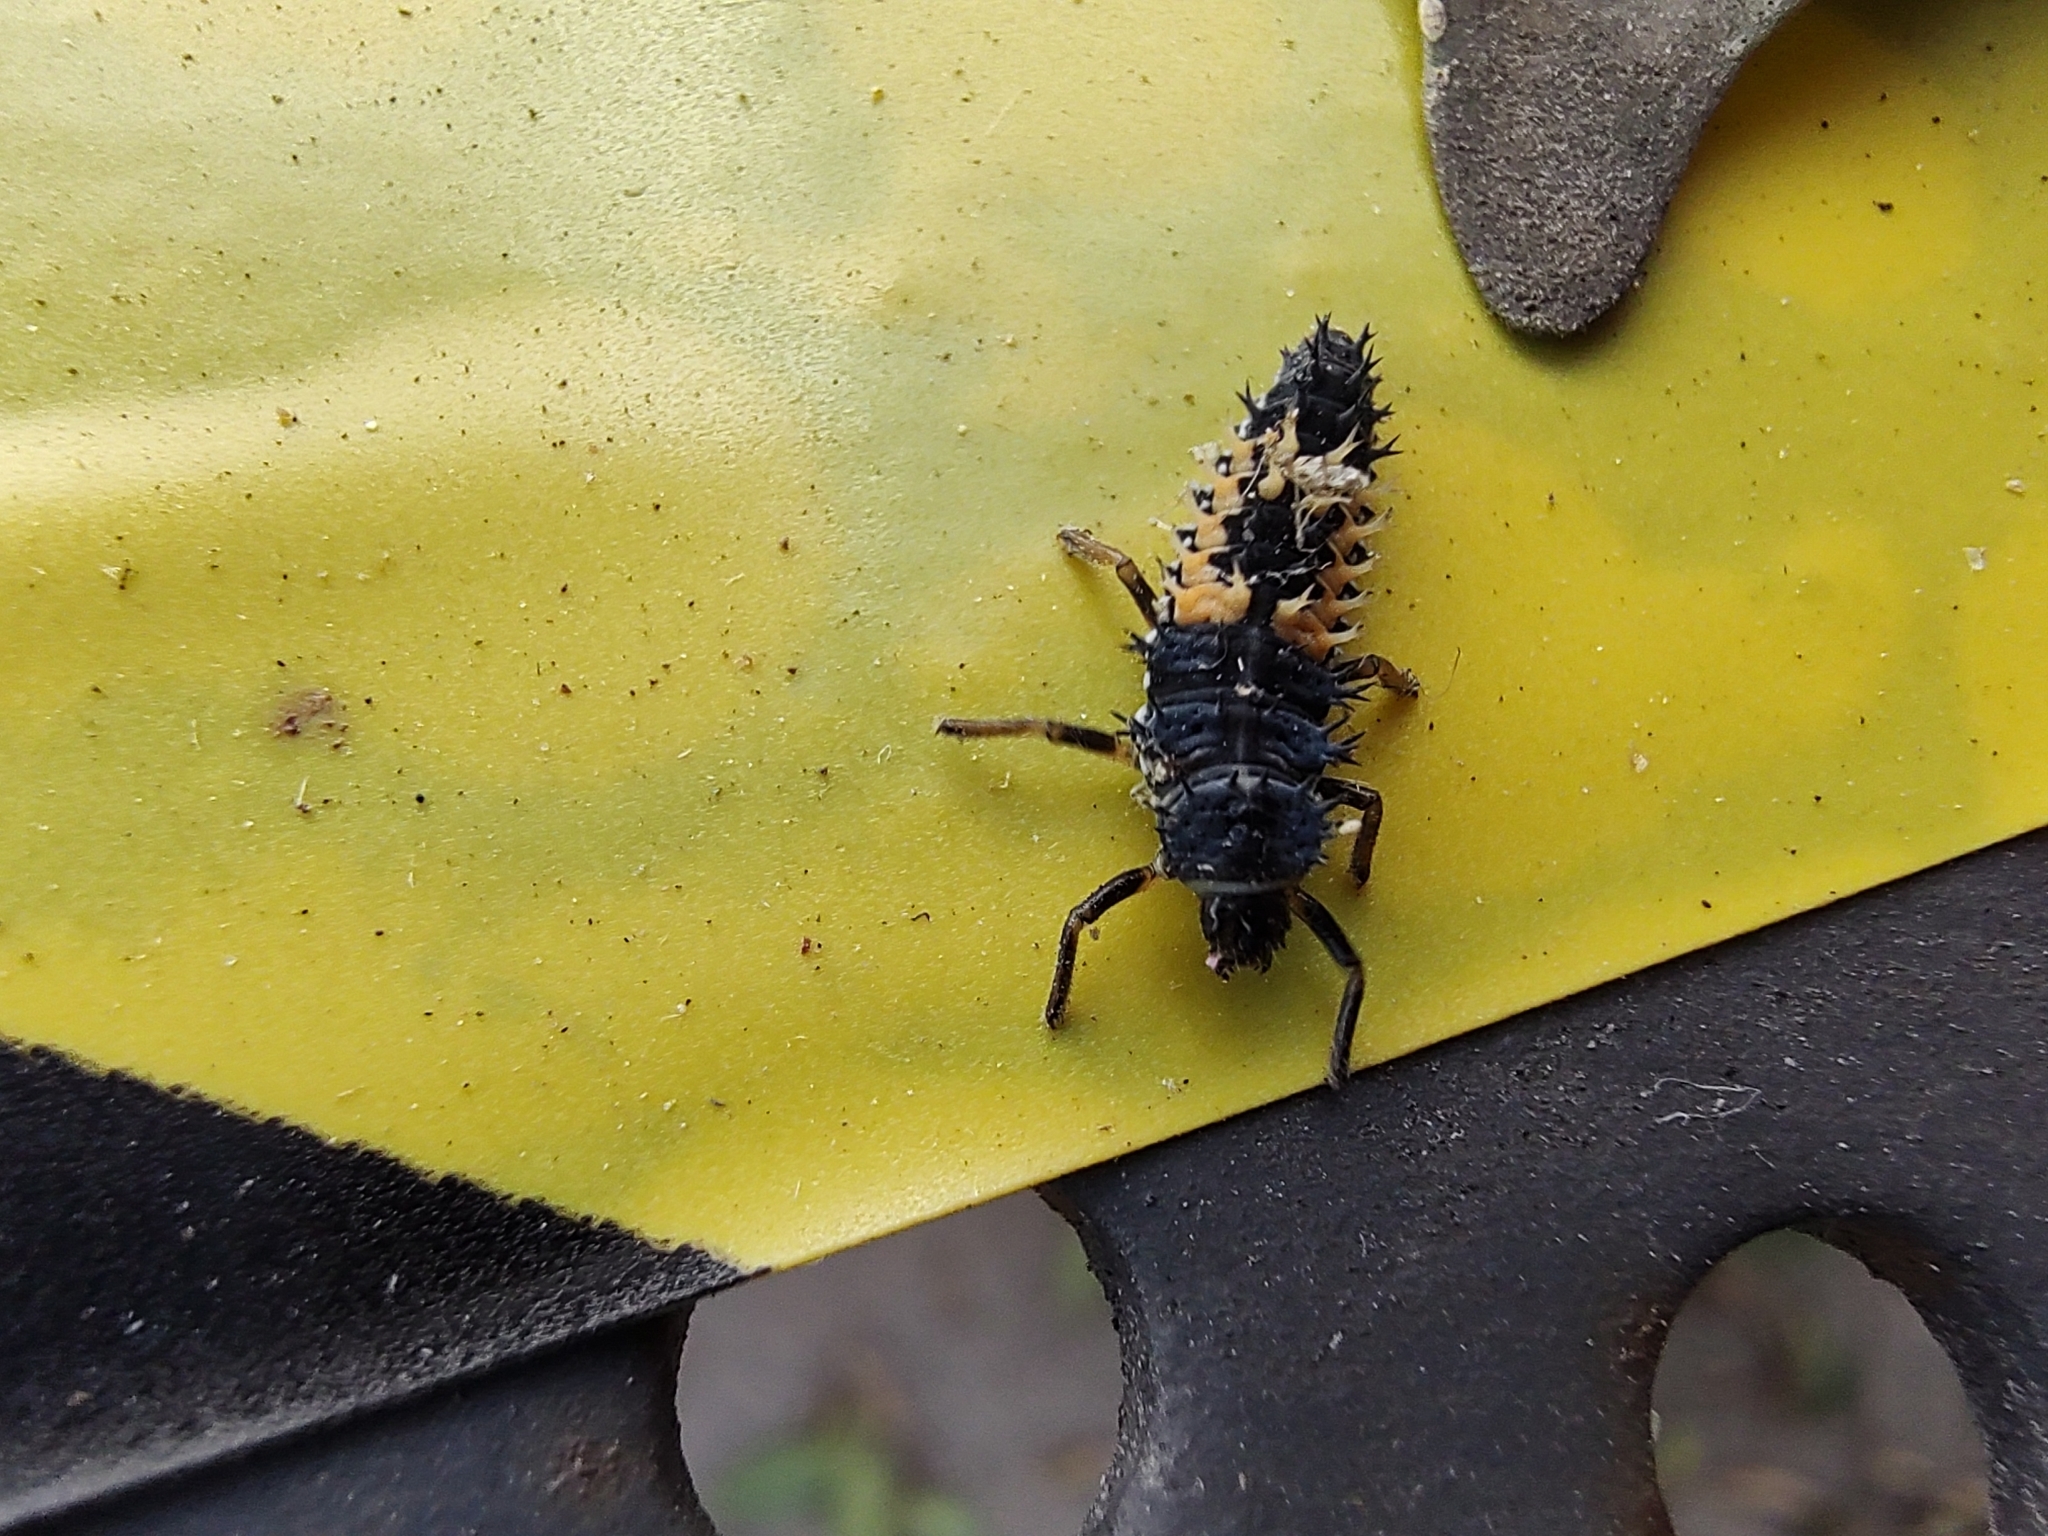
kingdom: Animalia
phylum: Arthropoda
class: Insecta
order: Coleoptera
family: Coccinellidae
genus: Harmonia
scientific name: Harmonia axyridis
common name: Harlequin ladybird
